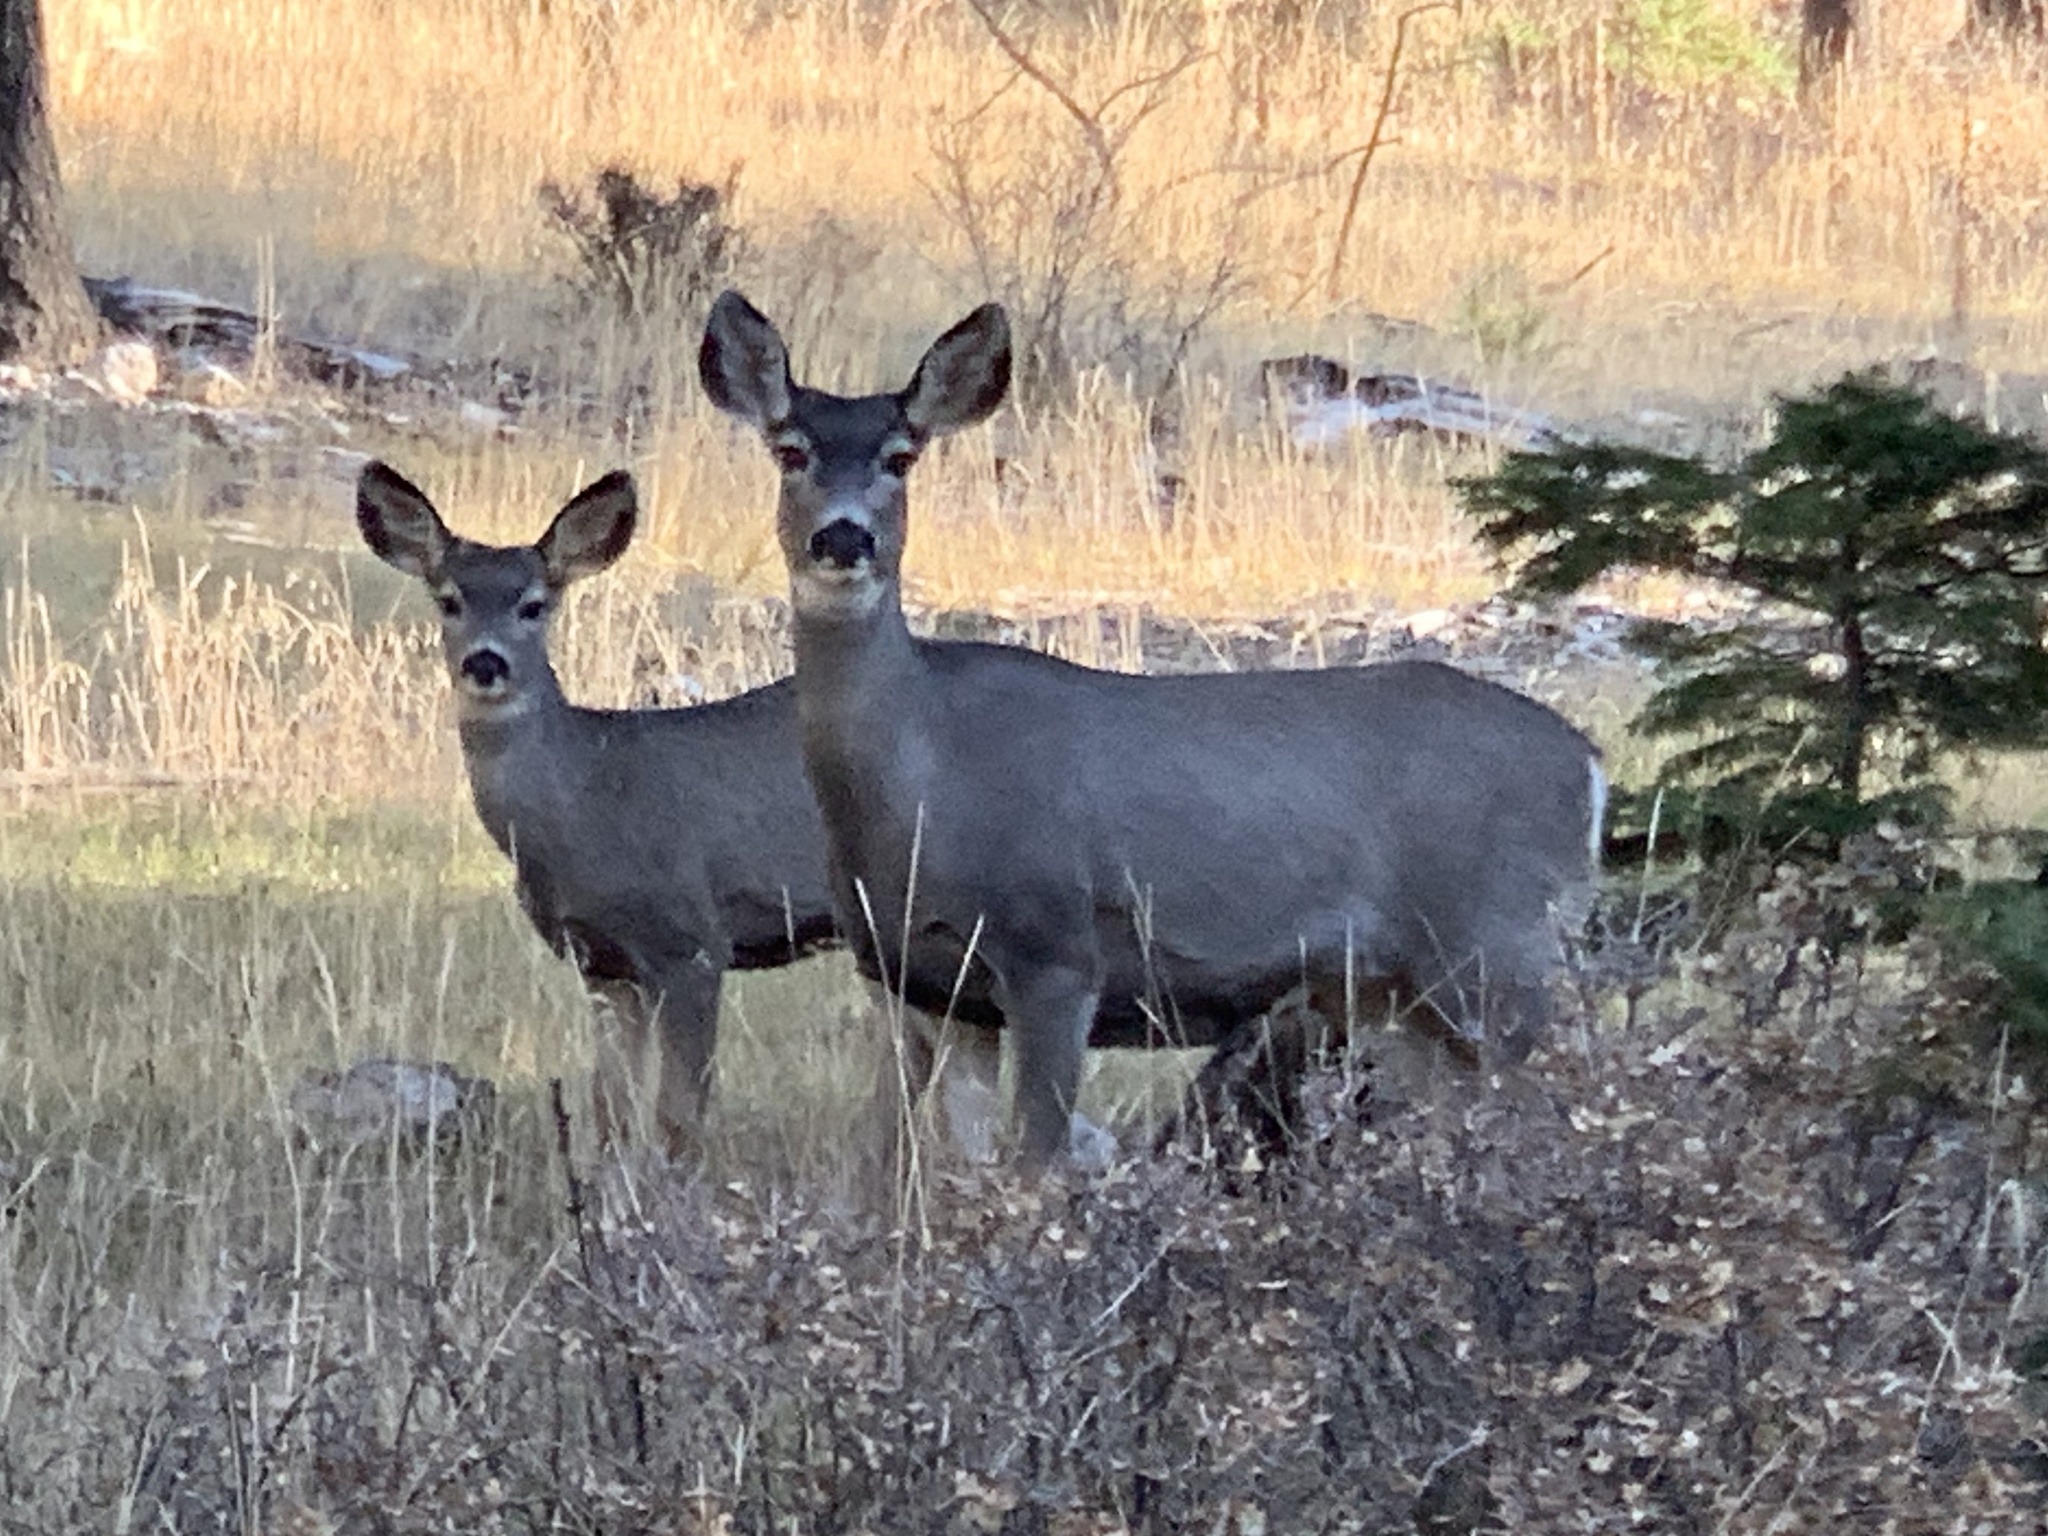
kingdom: Animalia
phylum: Chordata
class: Mammalia
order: Artiodactyla
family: Cervidae
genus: Odocoileus
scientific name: Odocoileus hemionus
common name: Mule deer
